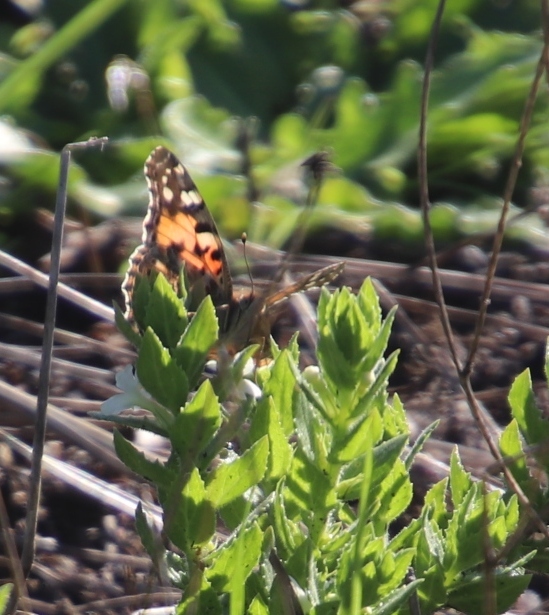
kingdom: Animalia
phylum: Arthropoda
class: Insecta
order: Lepidoptera
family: Nymphalidae
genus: Vanessa
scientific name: Vanessa cardui
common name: Painted lady
